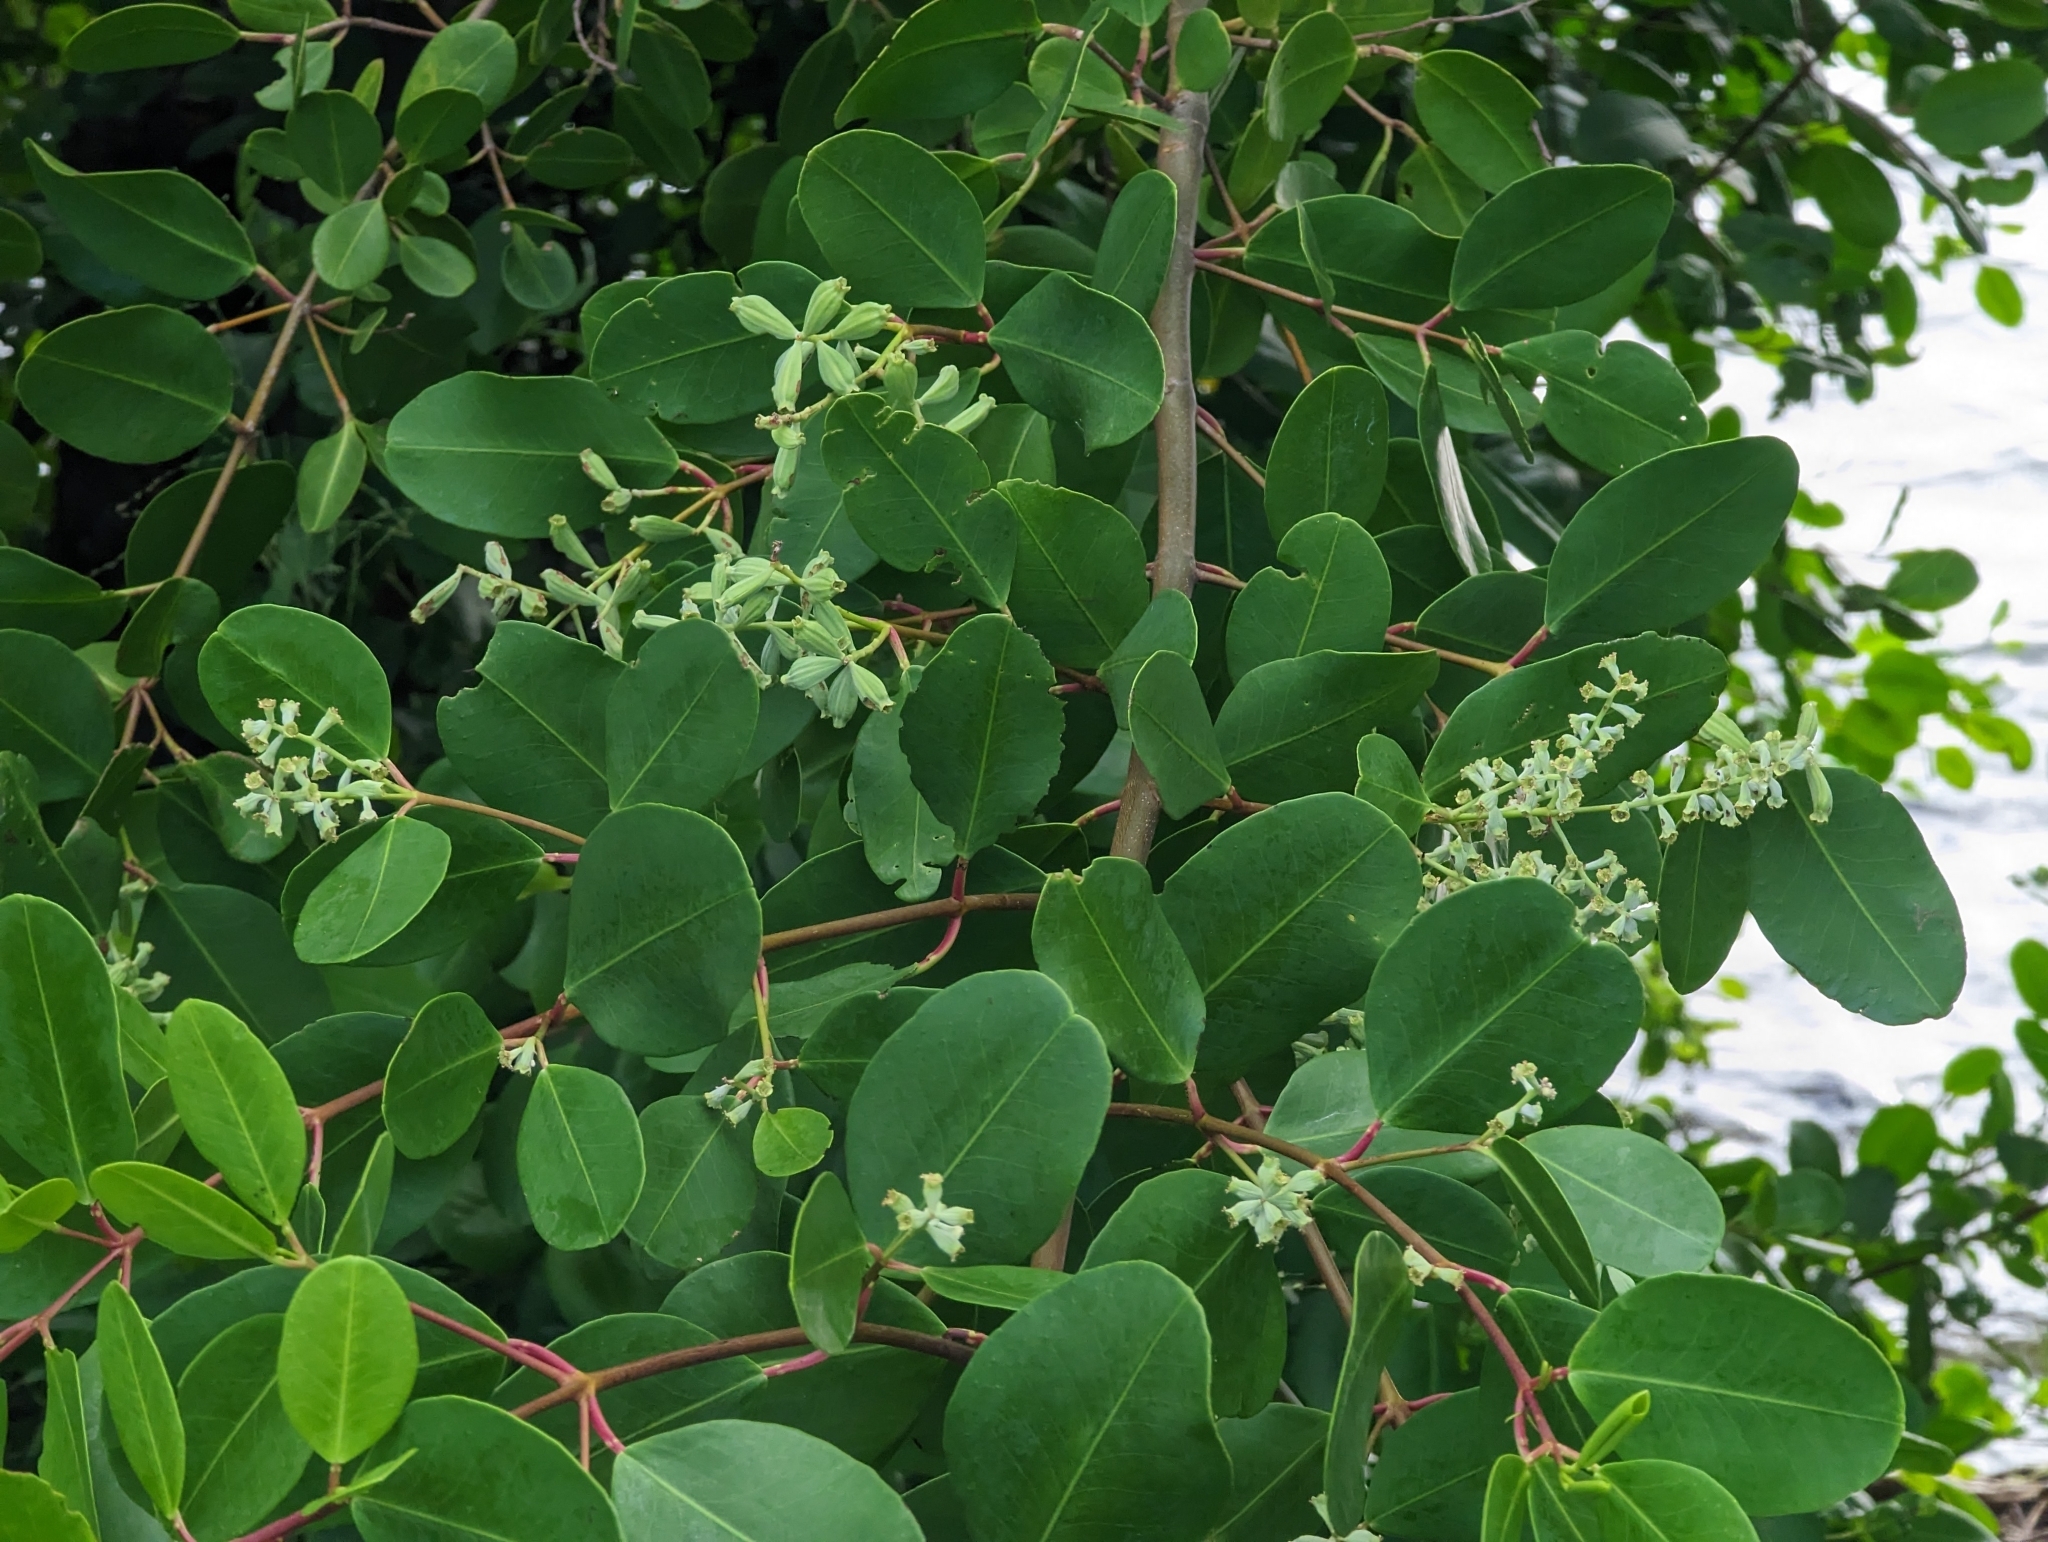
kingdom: Plantae
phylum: Tracheophyta
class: Magnoliopsida
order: Myrtales
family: Combretaceae
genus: Laguncularia
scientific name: Laguncularia racemosa
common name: White mangrove
